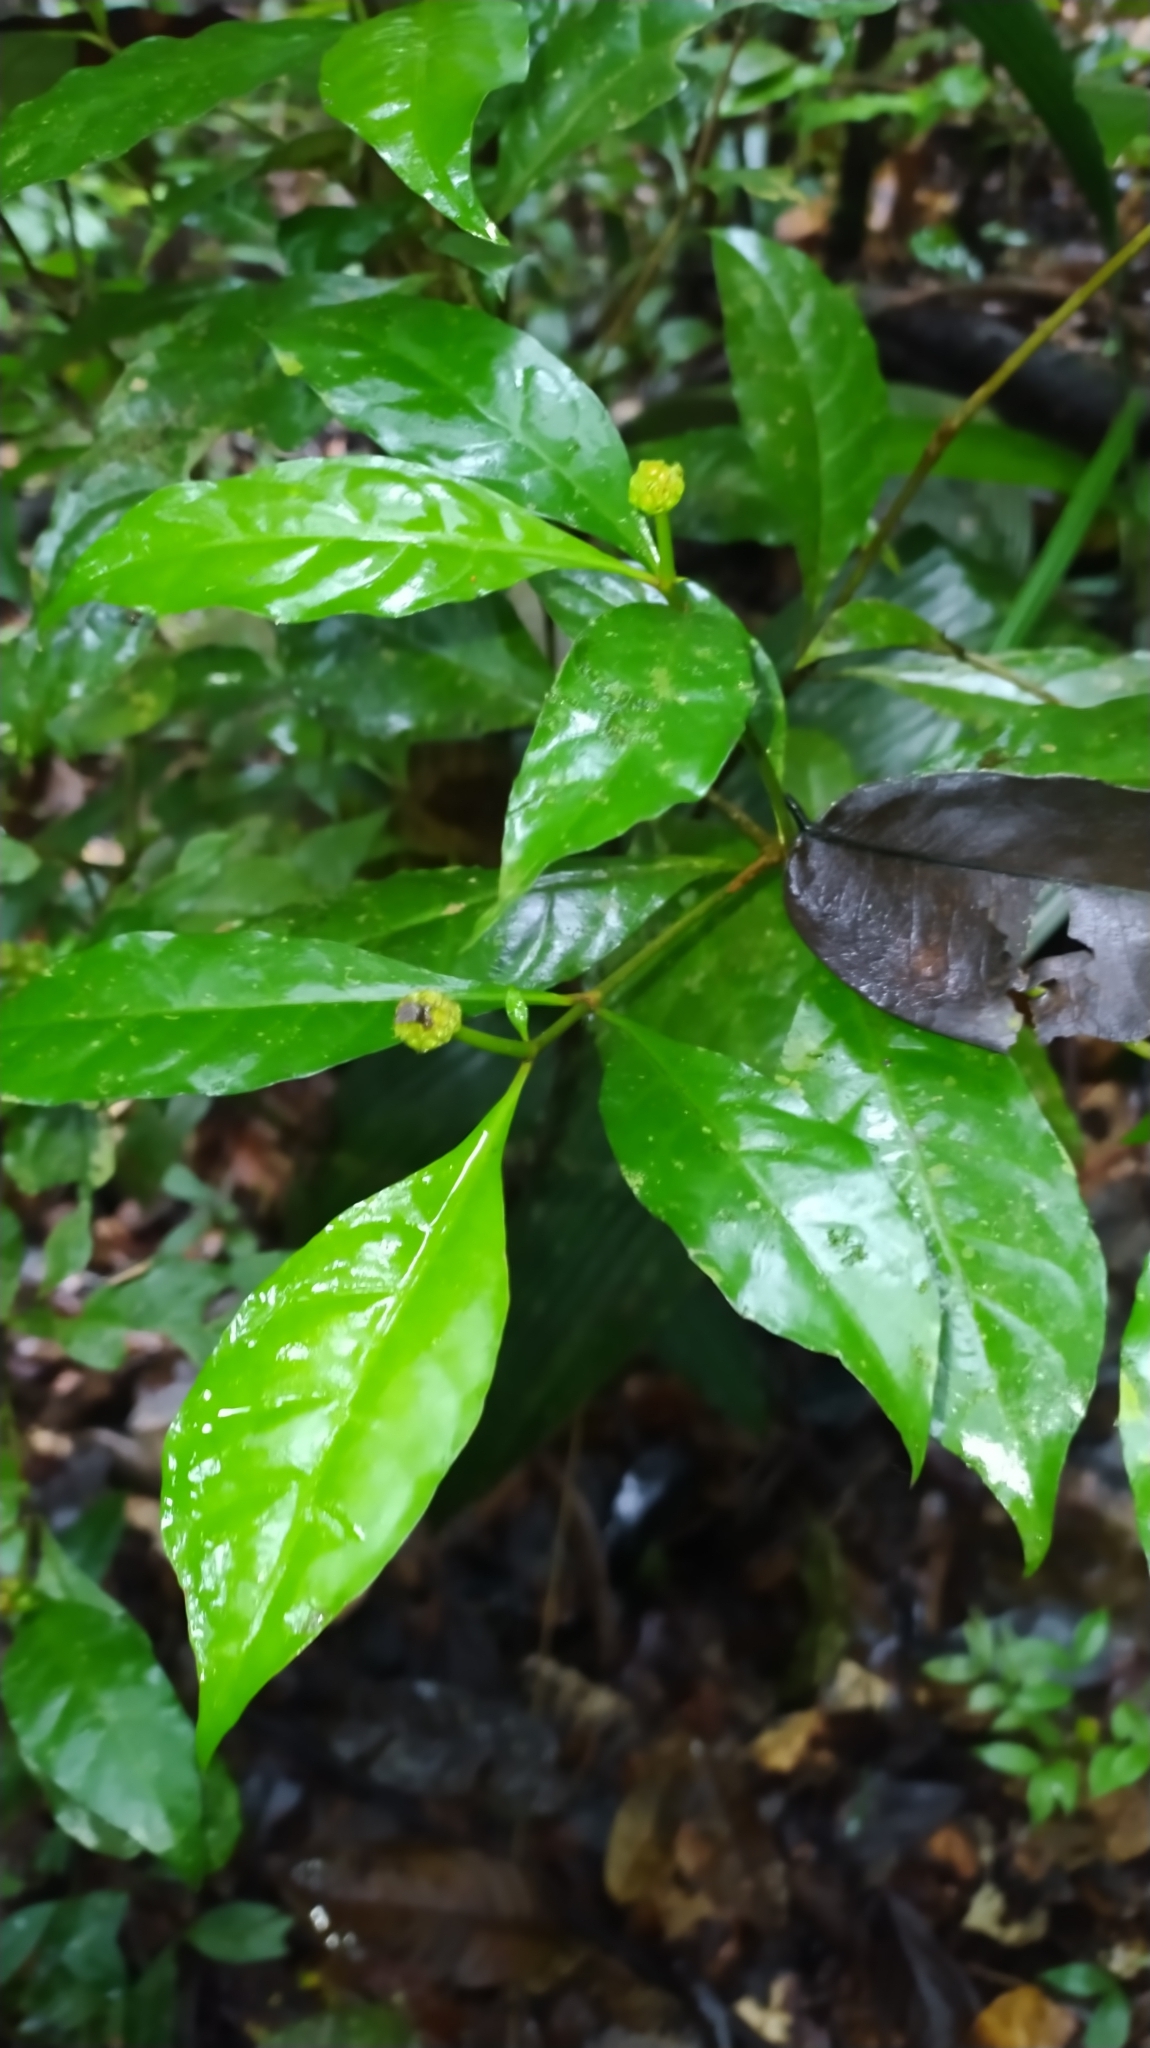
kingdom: Plantae
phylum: Tracheophyta
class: Magnoliopsida
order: Gentianales
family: Rubiaceae
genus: Eumachia
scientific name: Eumachia guianensis
